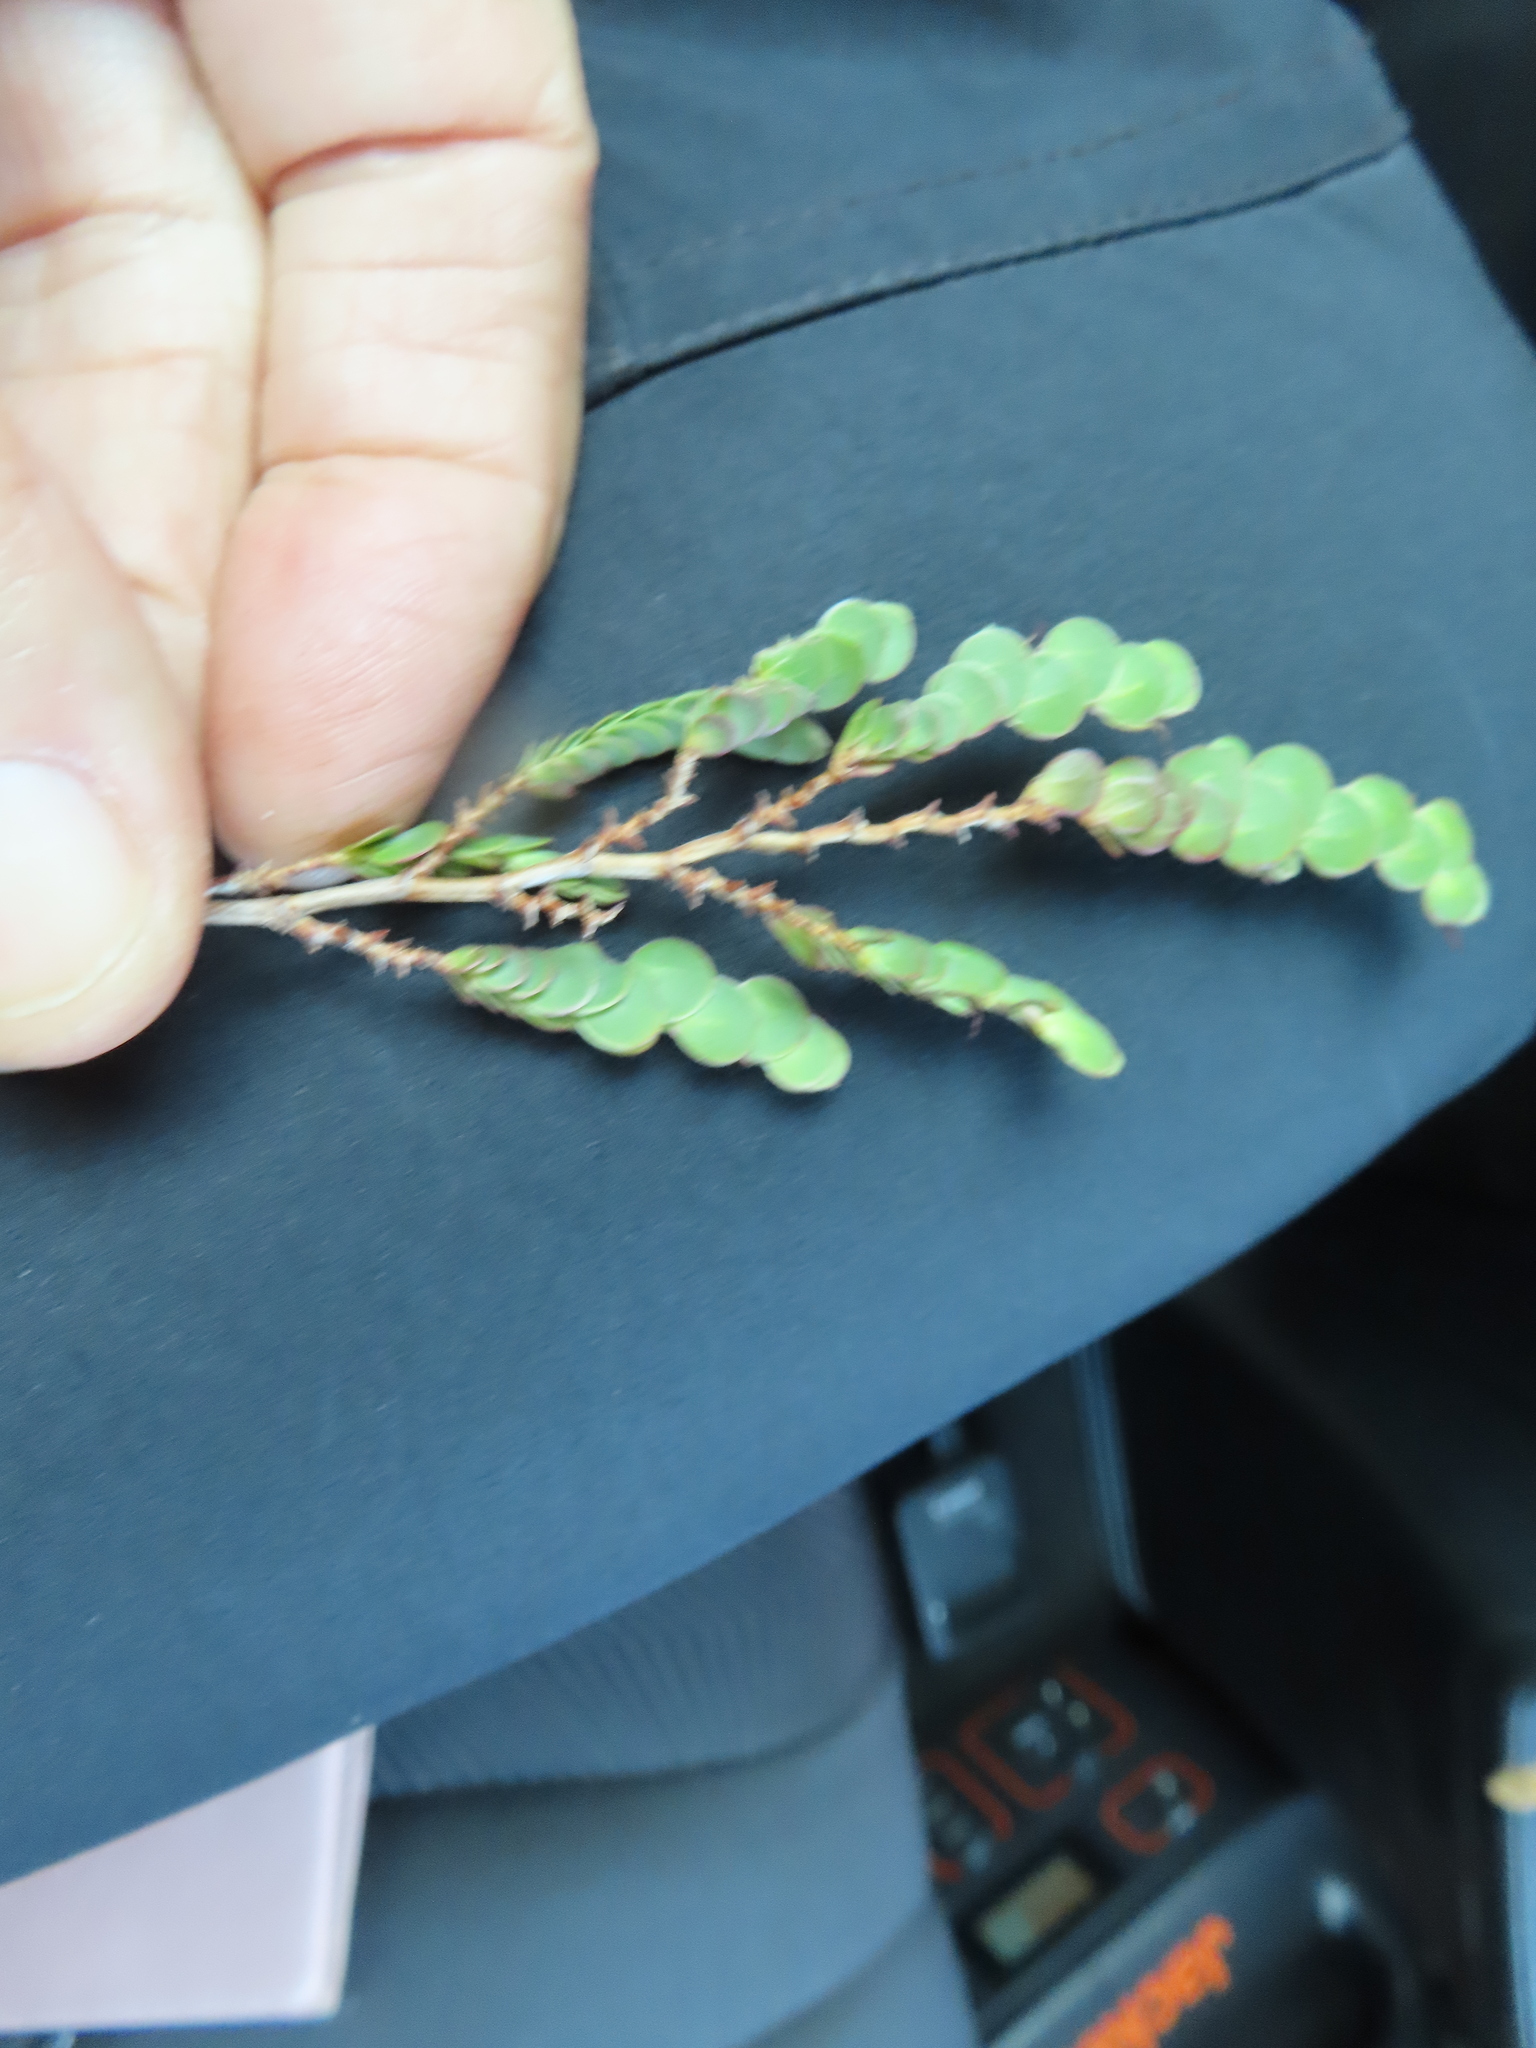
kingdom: Plantae
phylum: Tracheophyta
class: Magnoliopsida
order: Rosales
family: Rosaceae
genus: Cliffortia
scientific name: Cliffortia phyllanthoides
